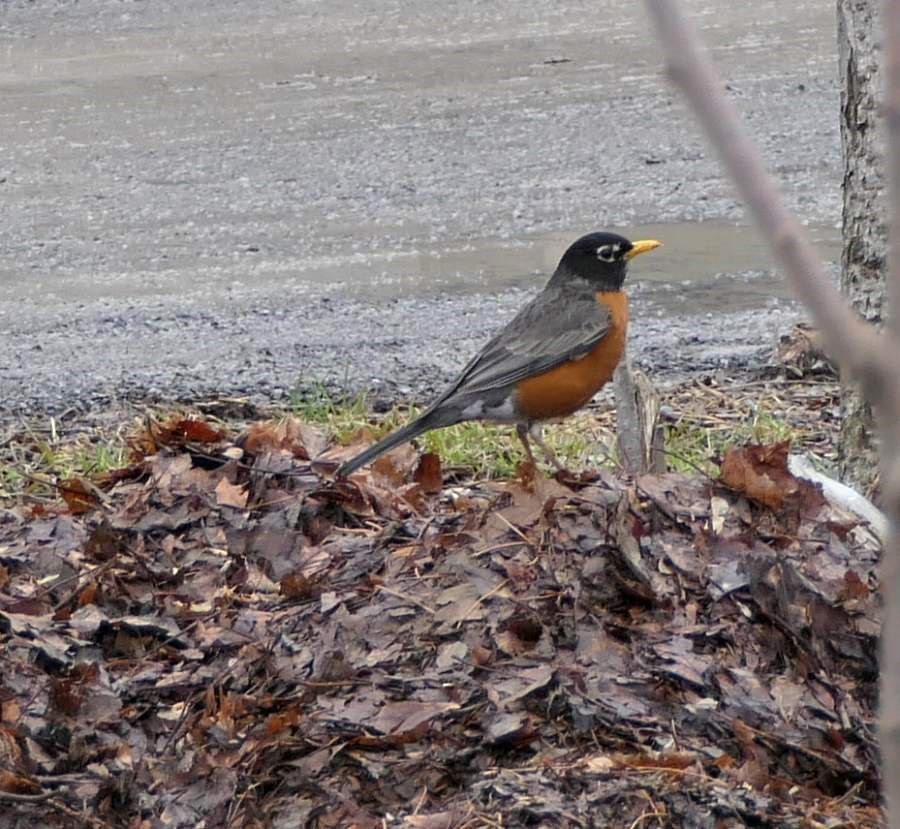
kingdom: Animalia
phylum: Chordata
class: Aves
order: Passeriformes
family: Turdidae
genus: Turdus
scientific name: Turdus migratorius
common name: American robin
